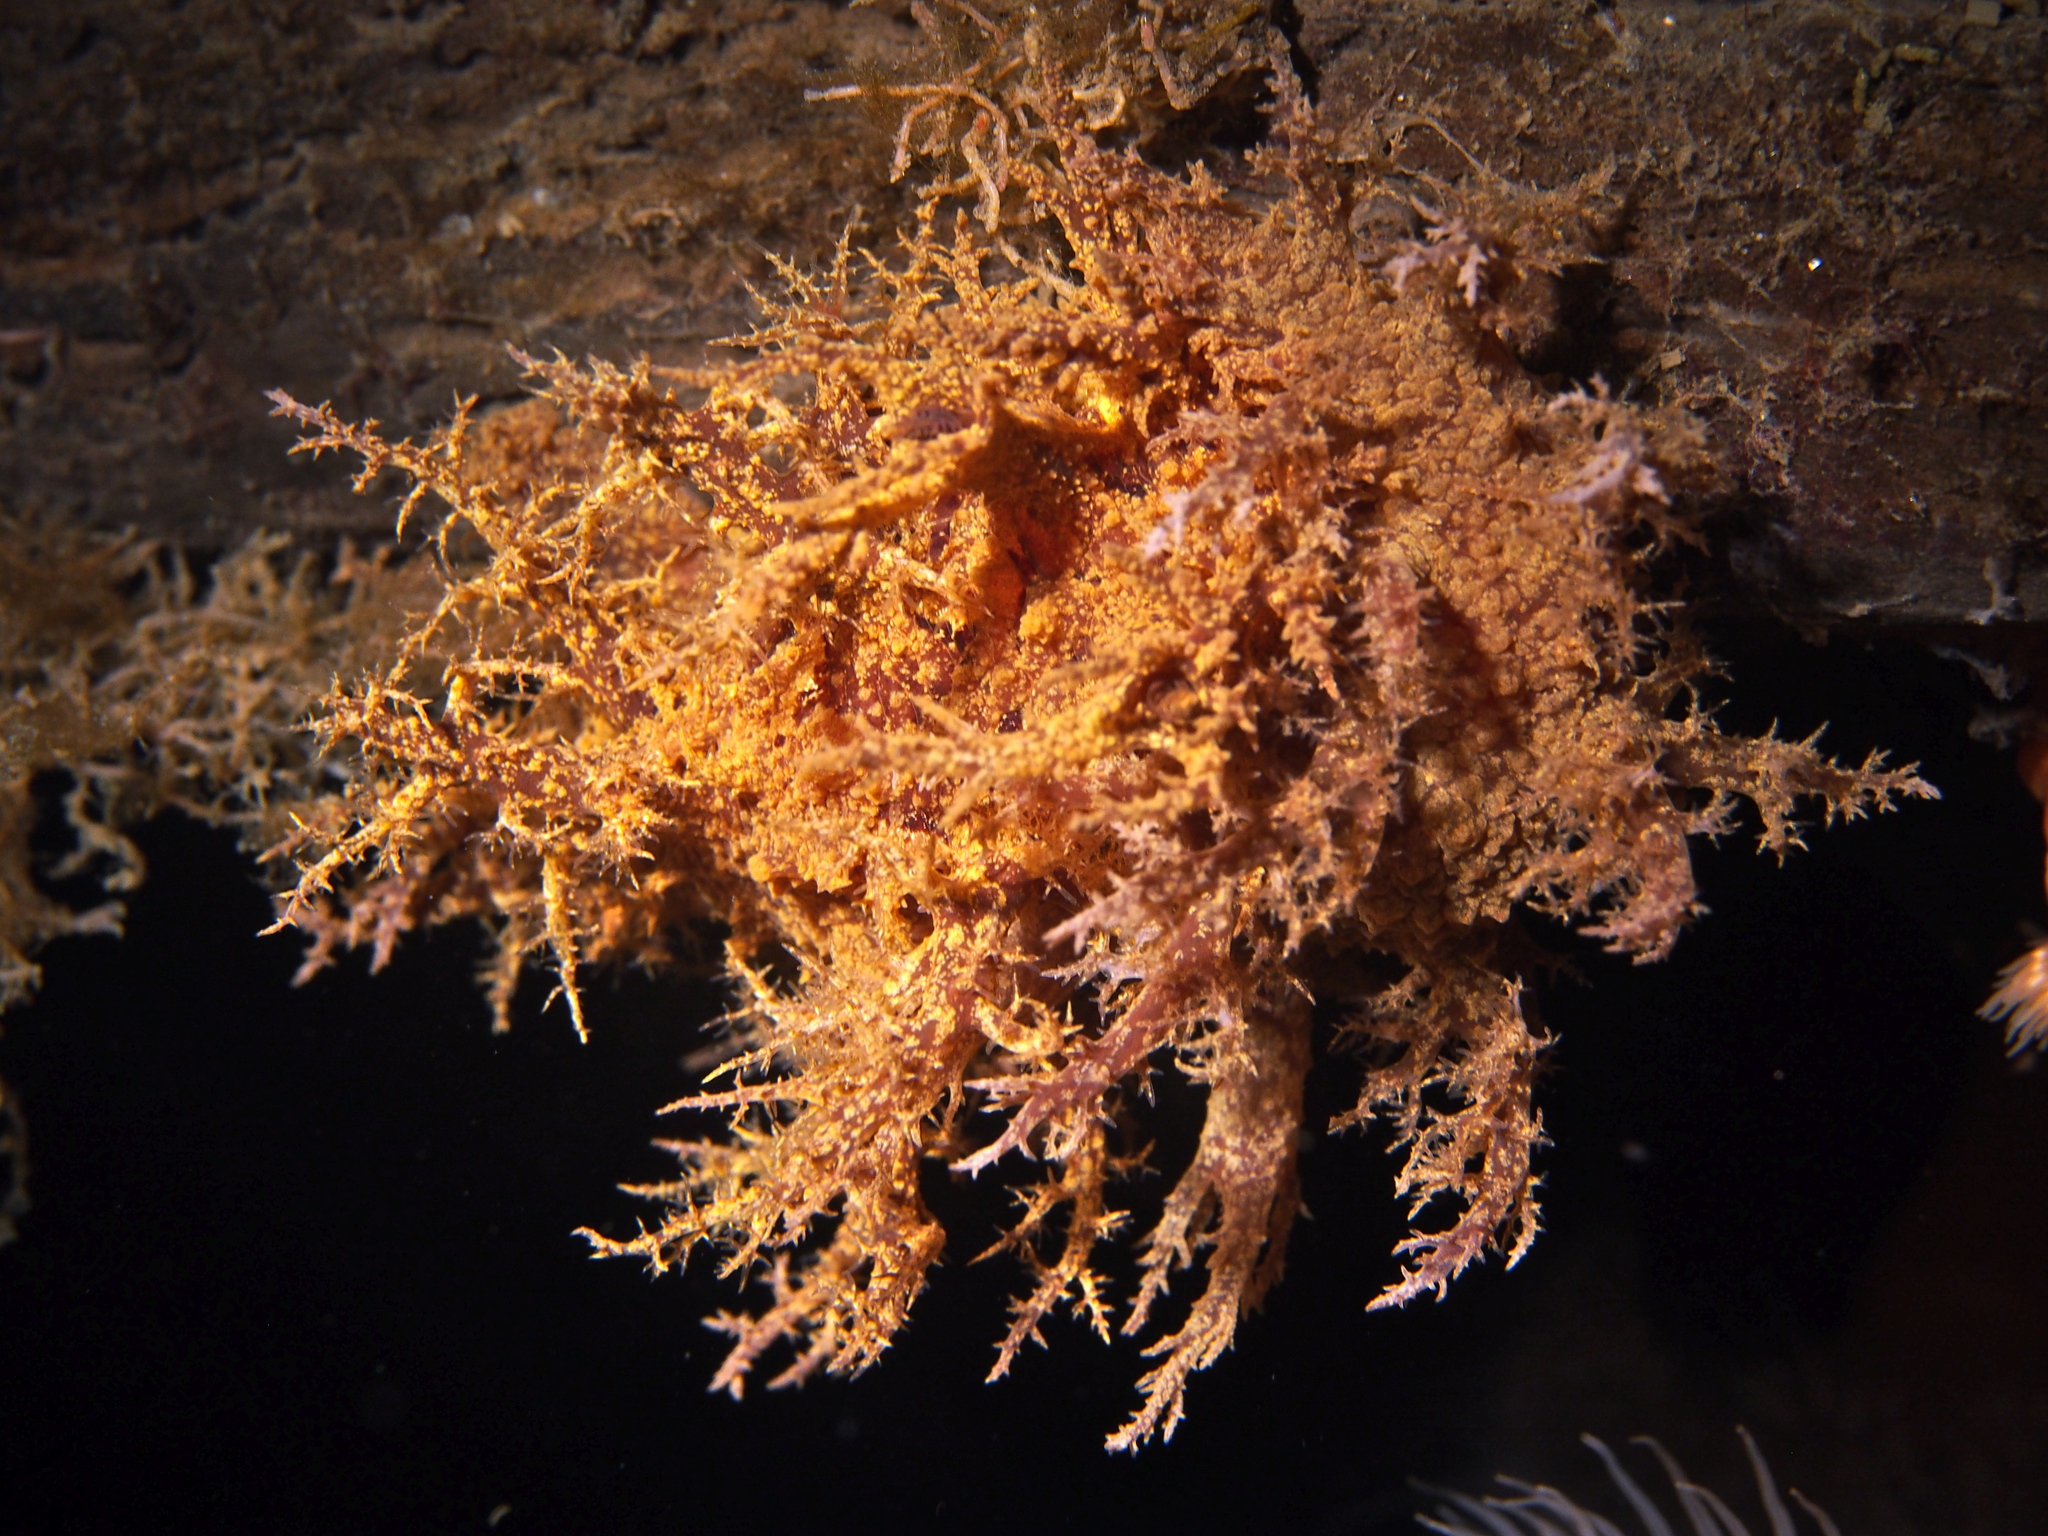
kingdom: Animalia
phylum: Mollusca
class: Gastropoda
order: Nudibranchia
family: Dendronotidae
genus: Dendronotus
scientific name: Dendronotus europaeus
